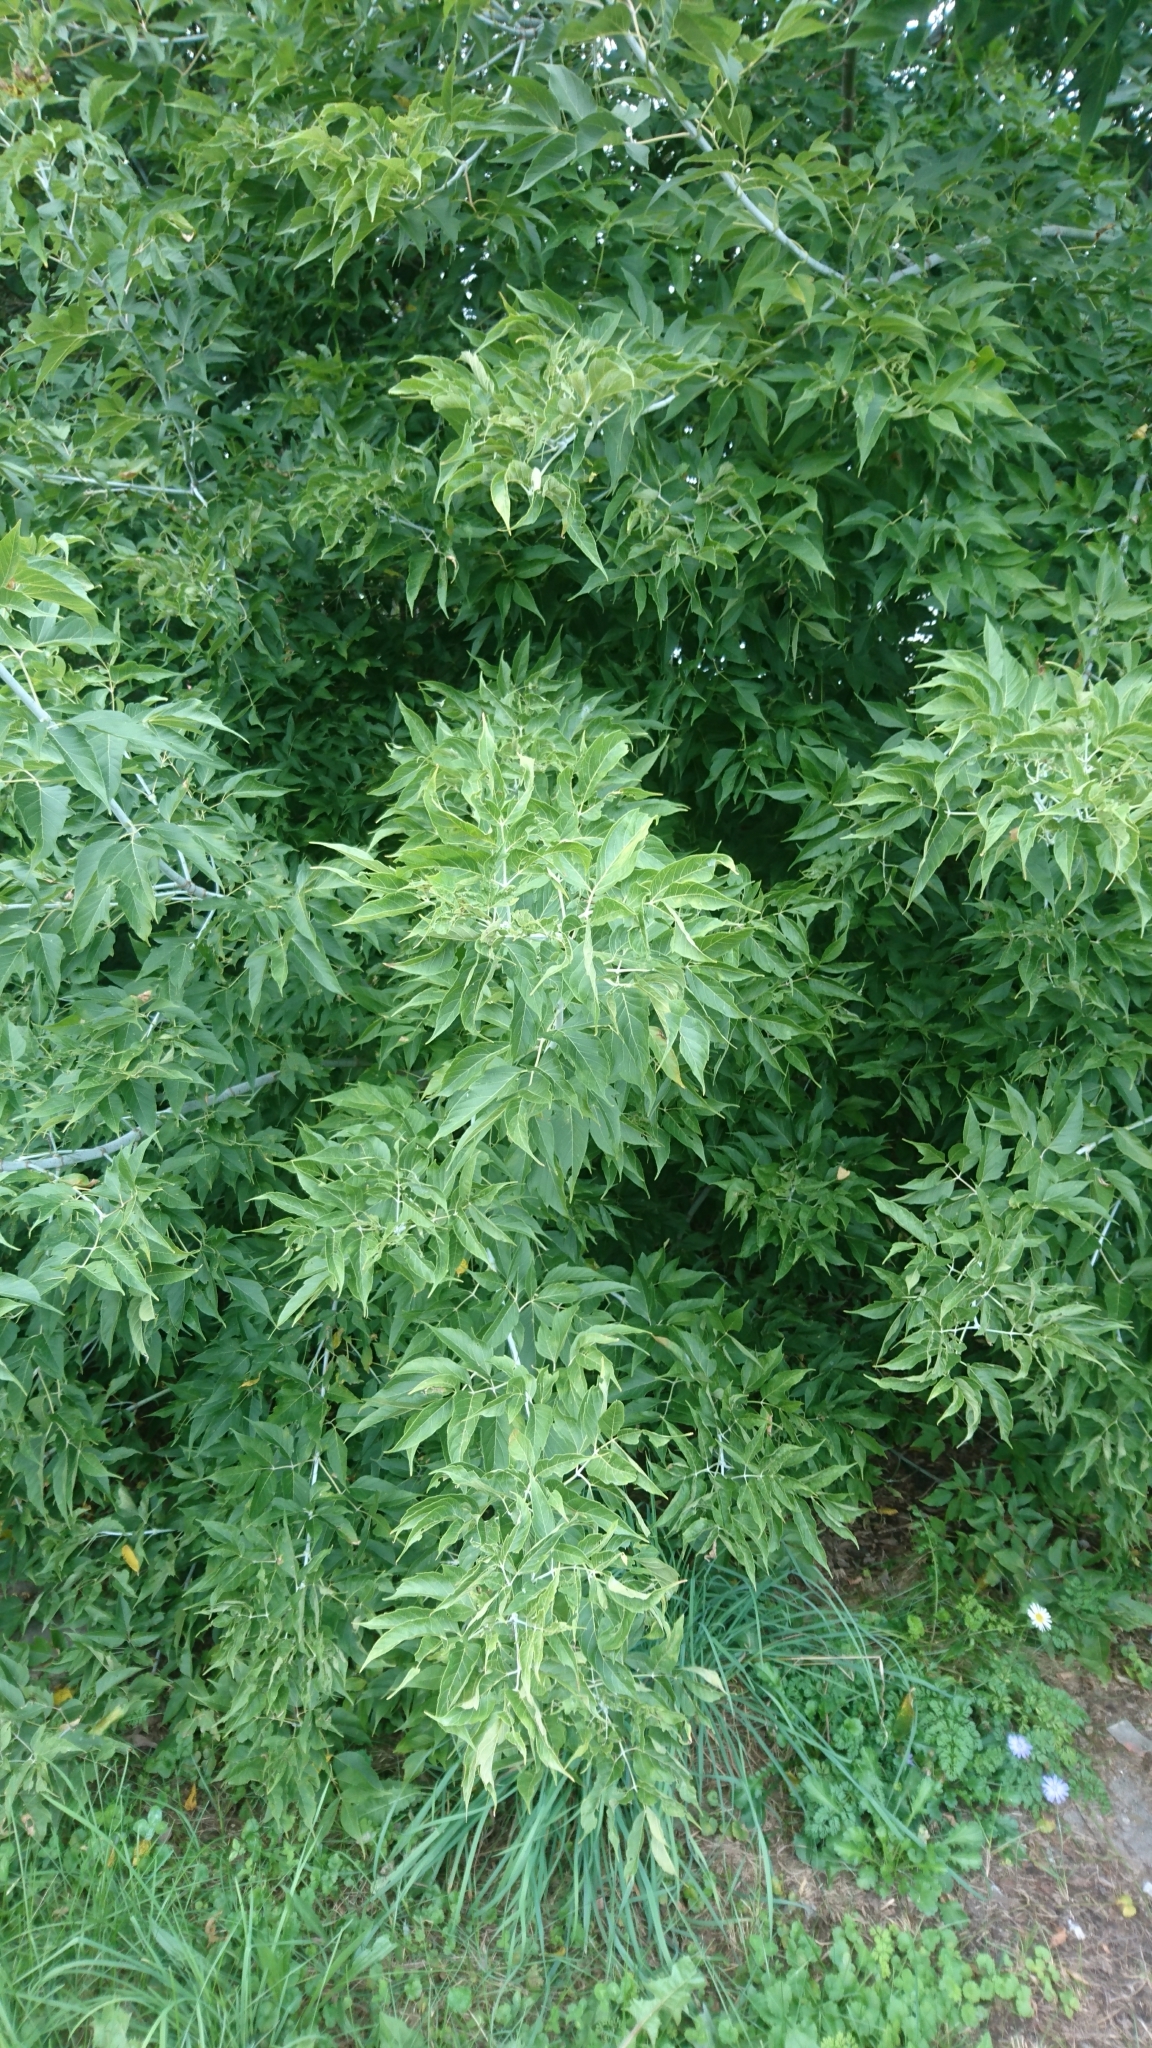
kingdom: Plantae
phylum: Tracheophyta
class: Magnoliopsida
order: Sapindales
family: Sapindaceae
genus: Acer
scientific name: Acer negundo
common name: Ashleaf maple
